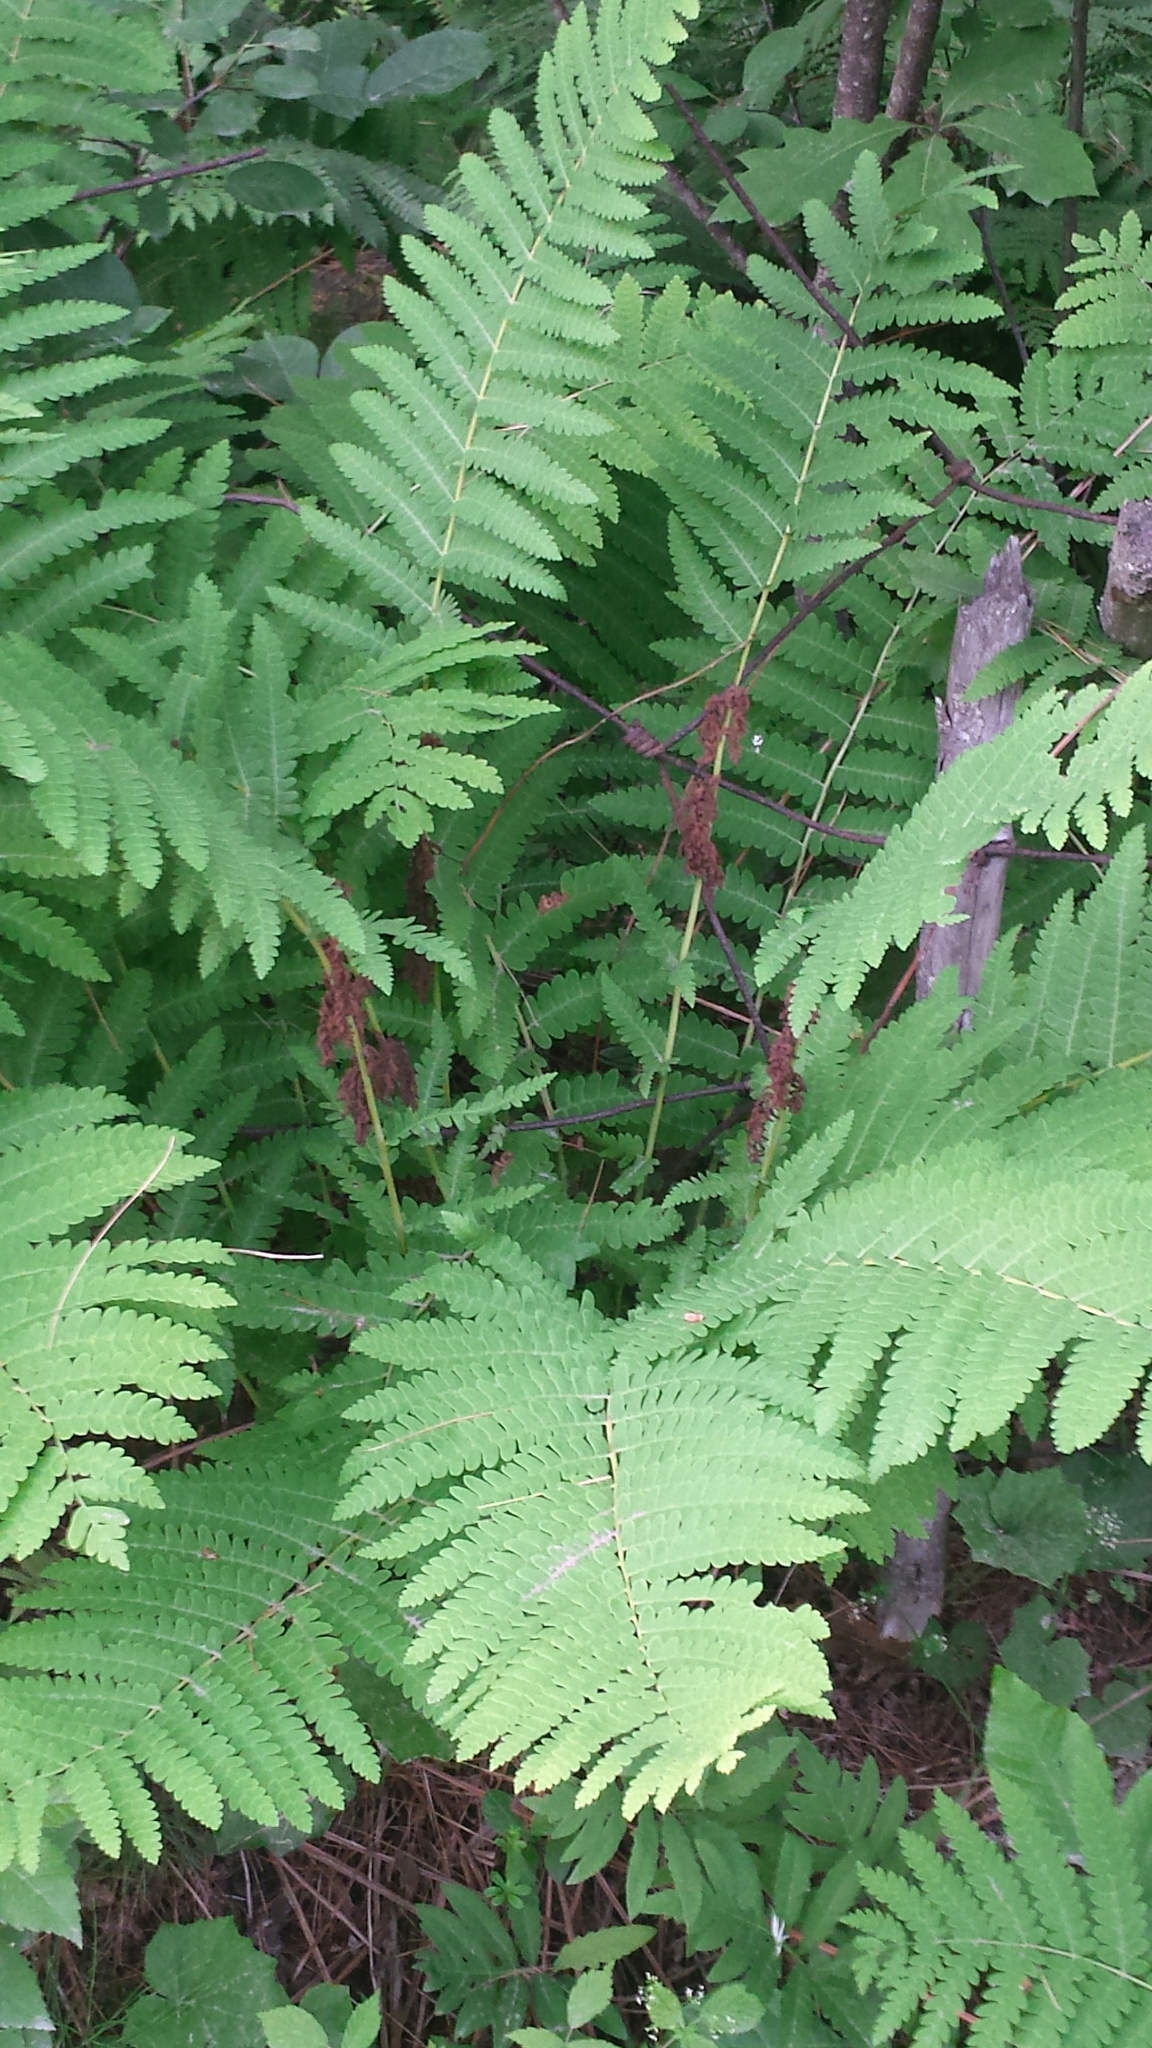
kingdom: Plantae
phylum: Tracheophyta
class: Polypodiopsida
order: Osmundales
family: Osmundaceae
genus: Claytosmunda
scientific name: Claytosmunda claytoniana
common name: Clayton's fern
